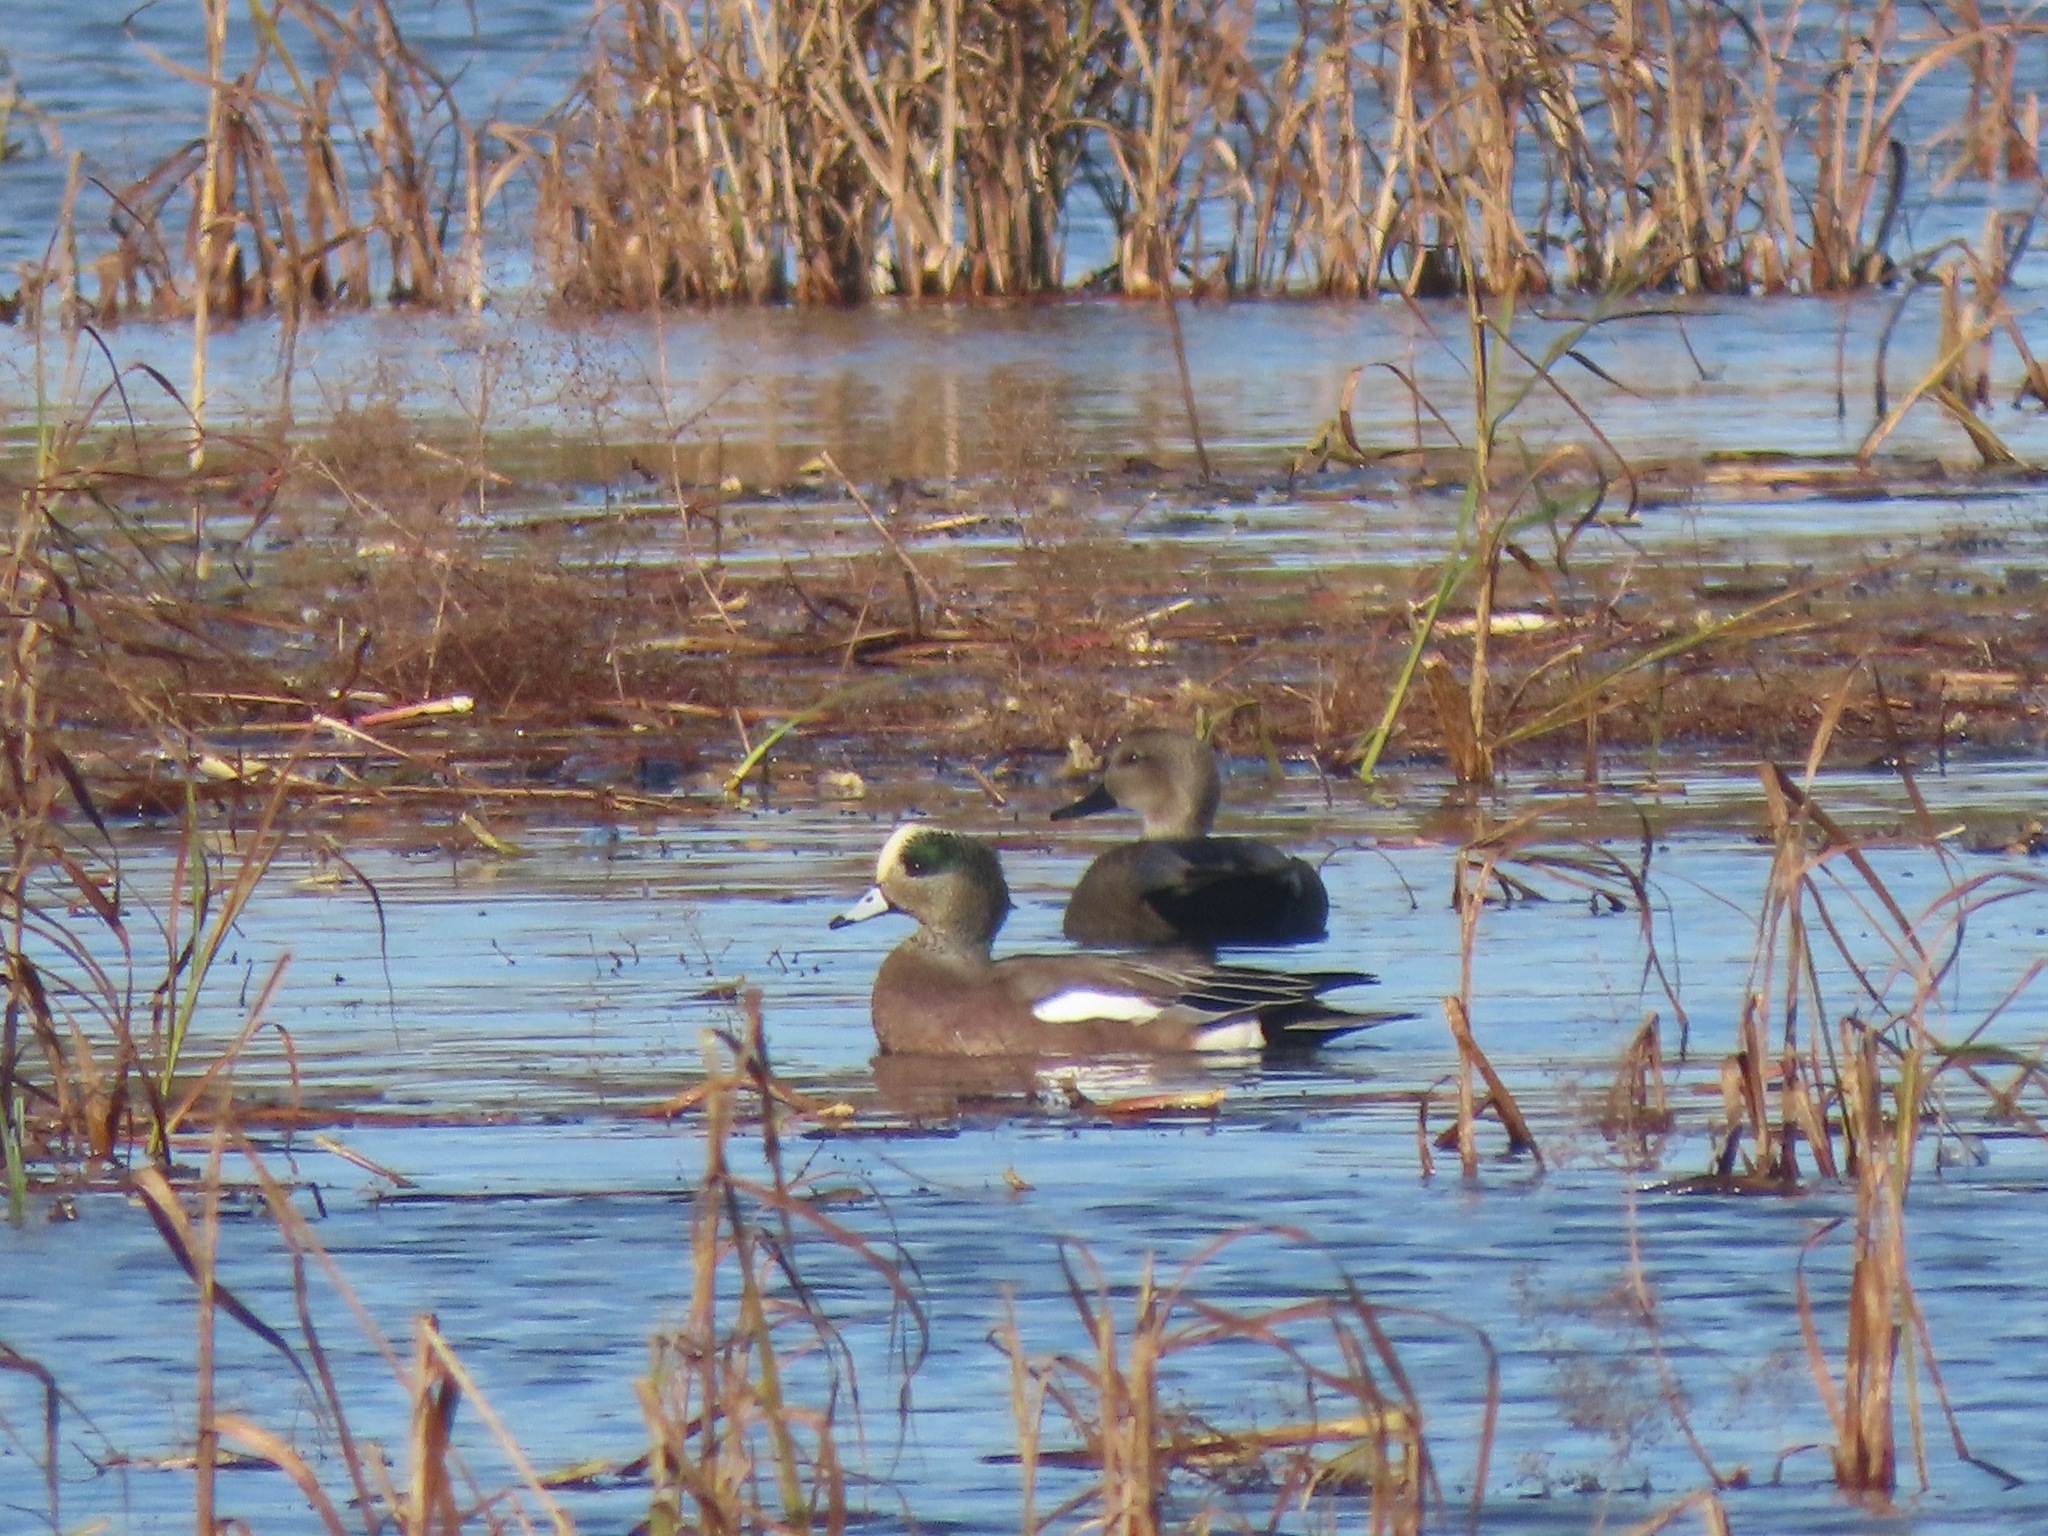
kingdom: Animalia
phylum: Chordata
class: Aves
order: Anseriformes
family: Anatidae
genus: Mareca
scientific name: Mareca strepera
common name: Gadwall
